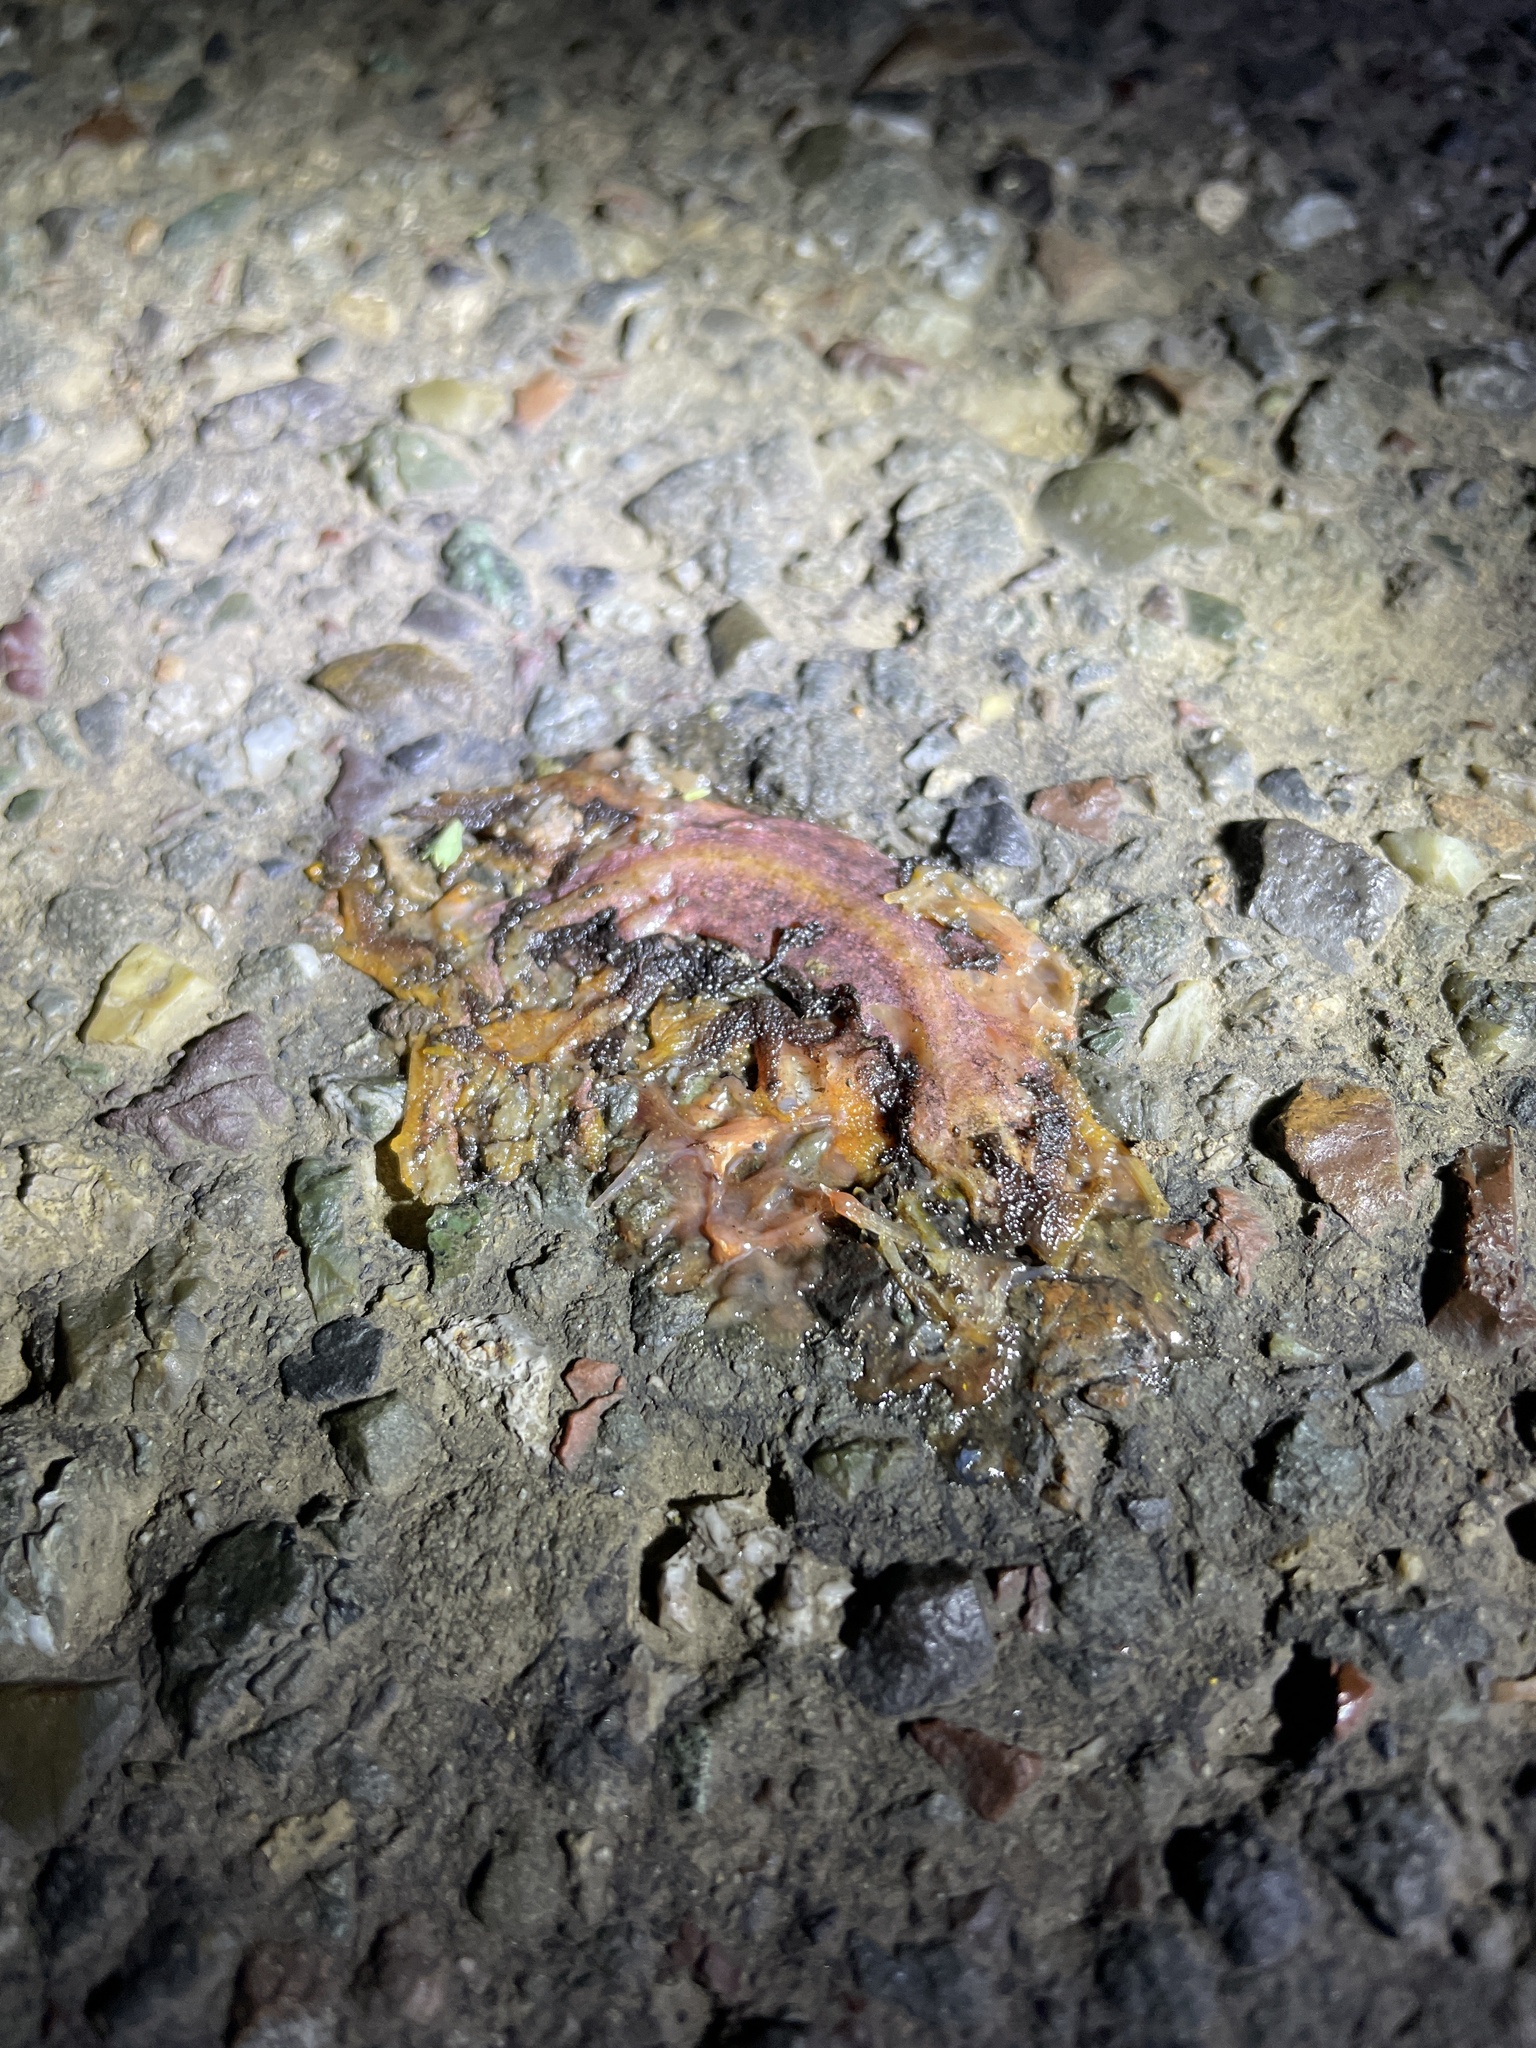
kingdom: Animalia
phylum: Chordata
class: Amphibia
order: Caudata
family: Salamandridae
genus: Taricha
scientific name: Taricha
